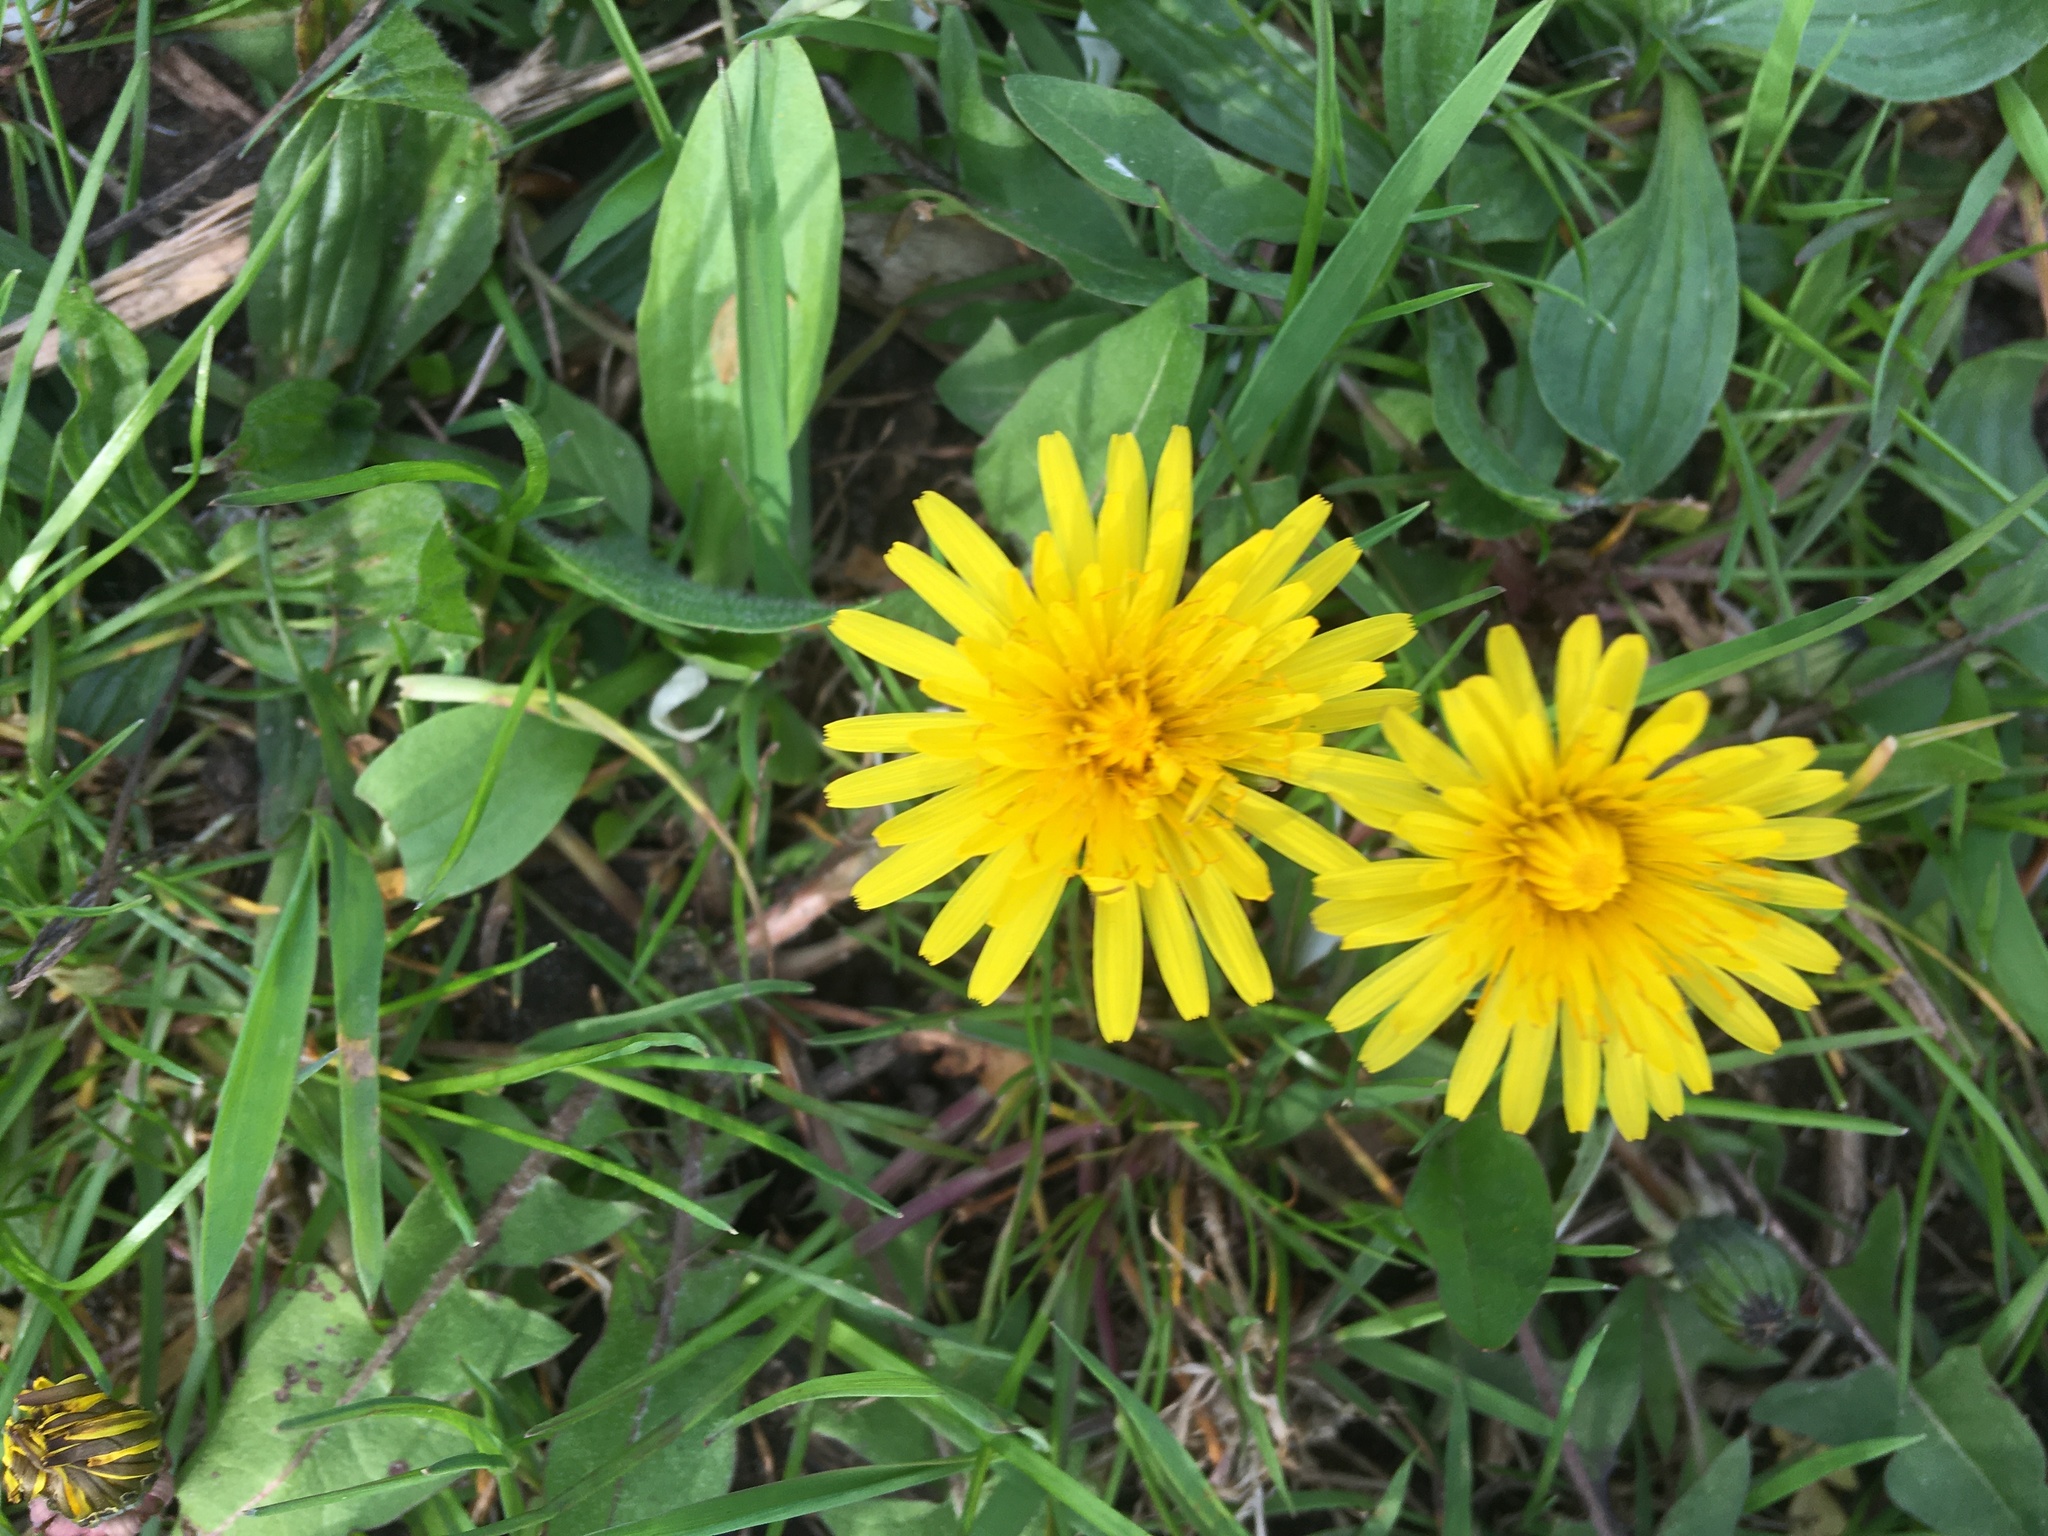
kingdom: Plantae
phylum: Tracheophyta
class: Magnoliopsida
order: Asterales
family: Asteraceae
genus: Taraxacum
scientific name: Taraxacum officinale
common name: Common dandelion
